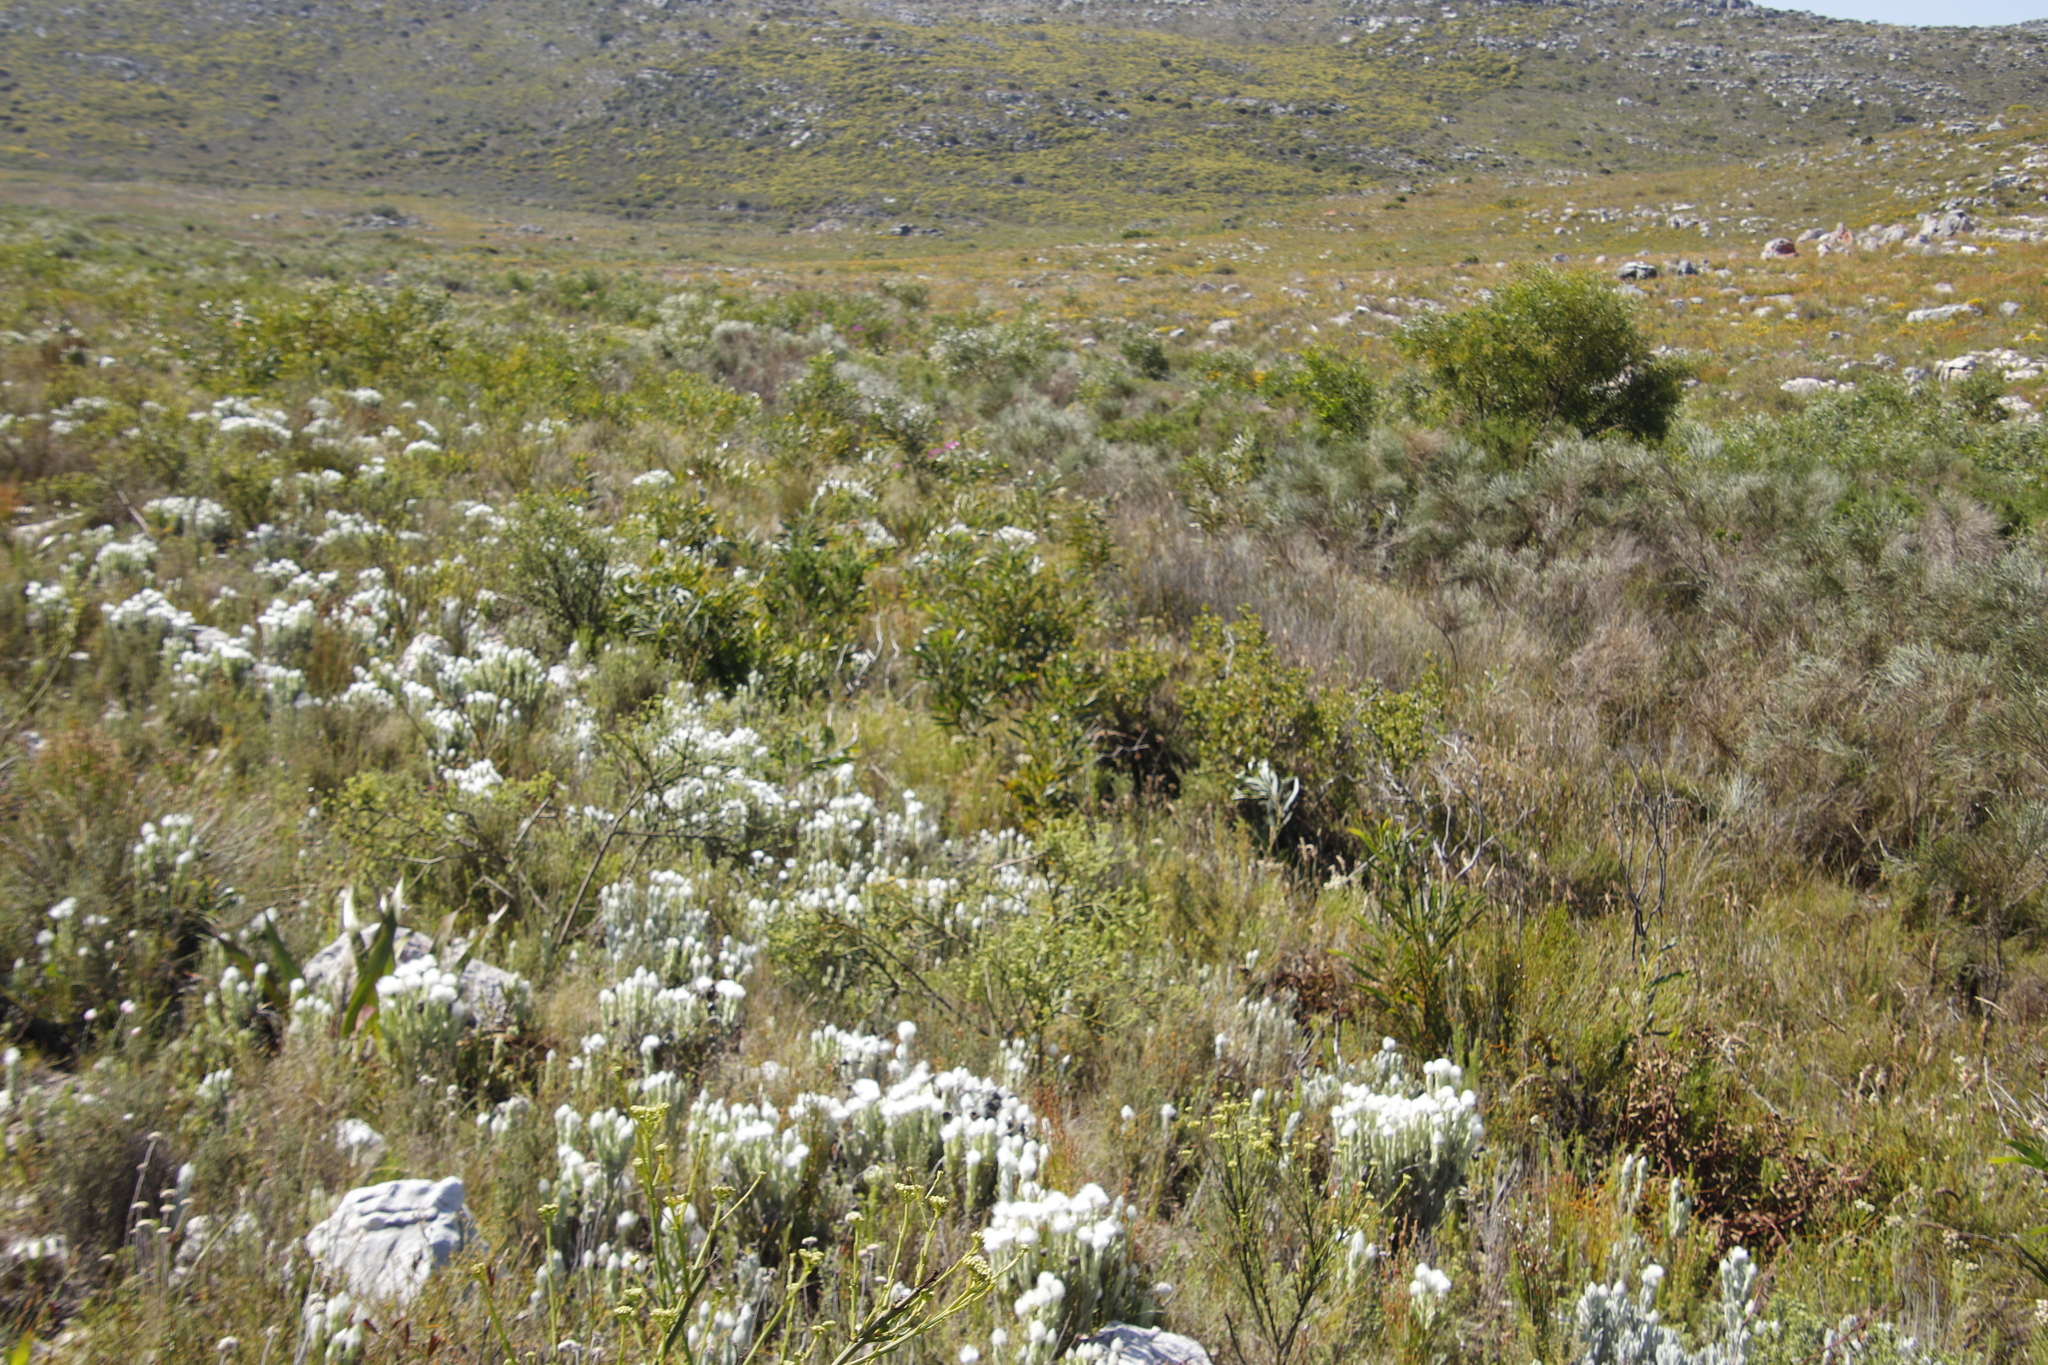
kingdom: Plantae
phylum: Tracheophyta
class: Magnoliopsida
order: Fabales
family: Fabaceae
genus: Acacia
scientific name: Acacia saligna
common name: Orange wattle
